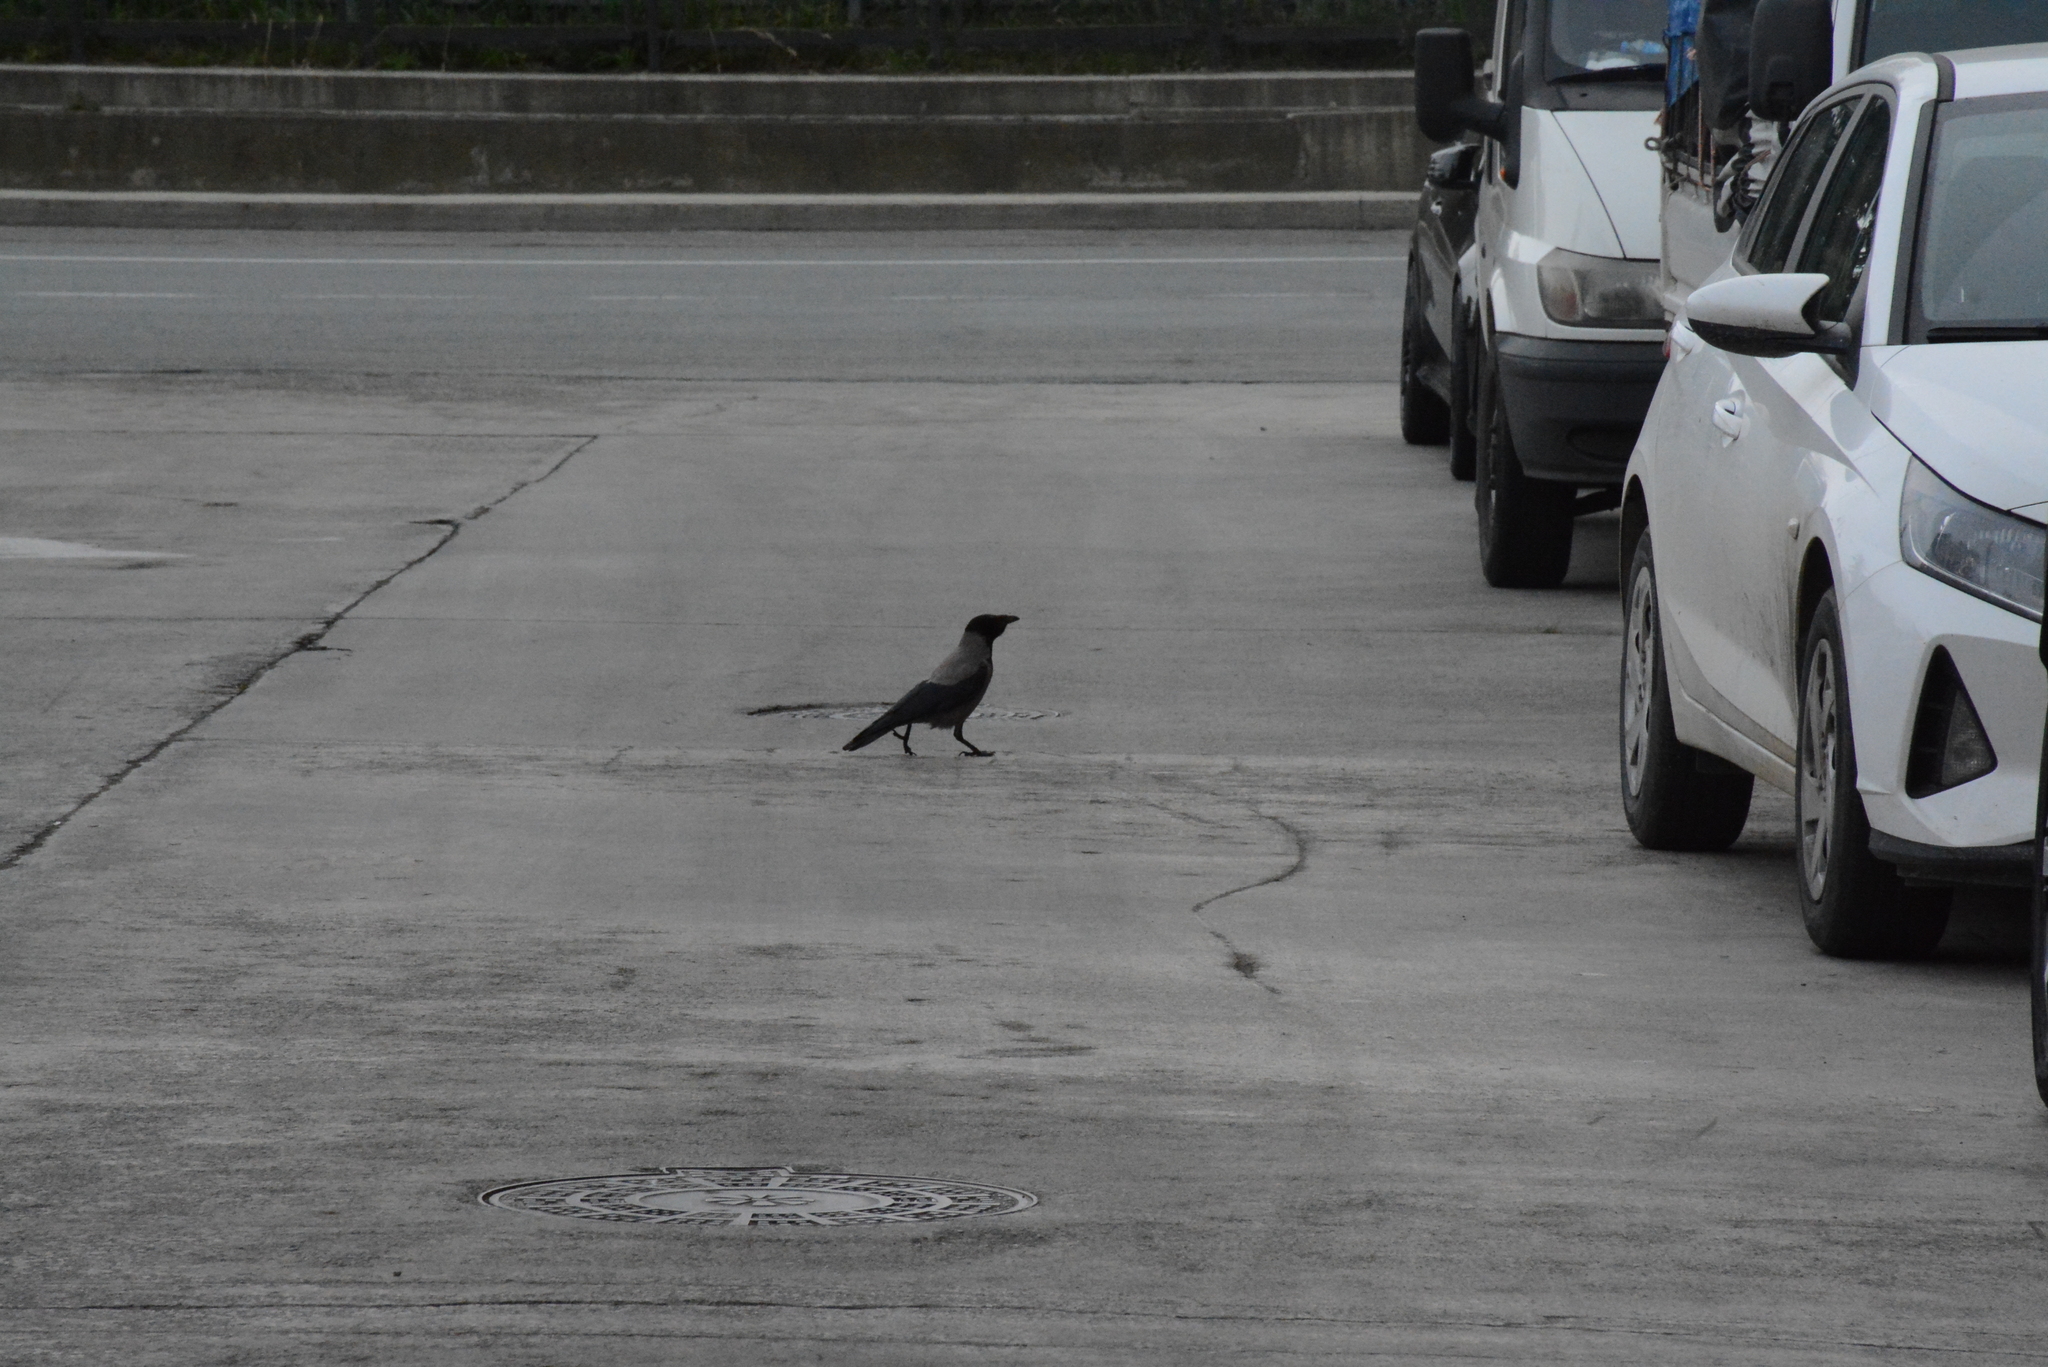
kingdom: Animalia
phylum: Chordata
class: Aves
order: Passeriformes
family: Corvidae
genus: Corvus
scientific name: Corvus cornix
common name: Hooded crow
